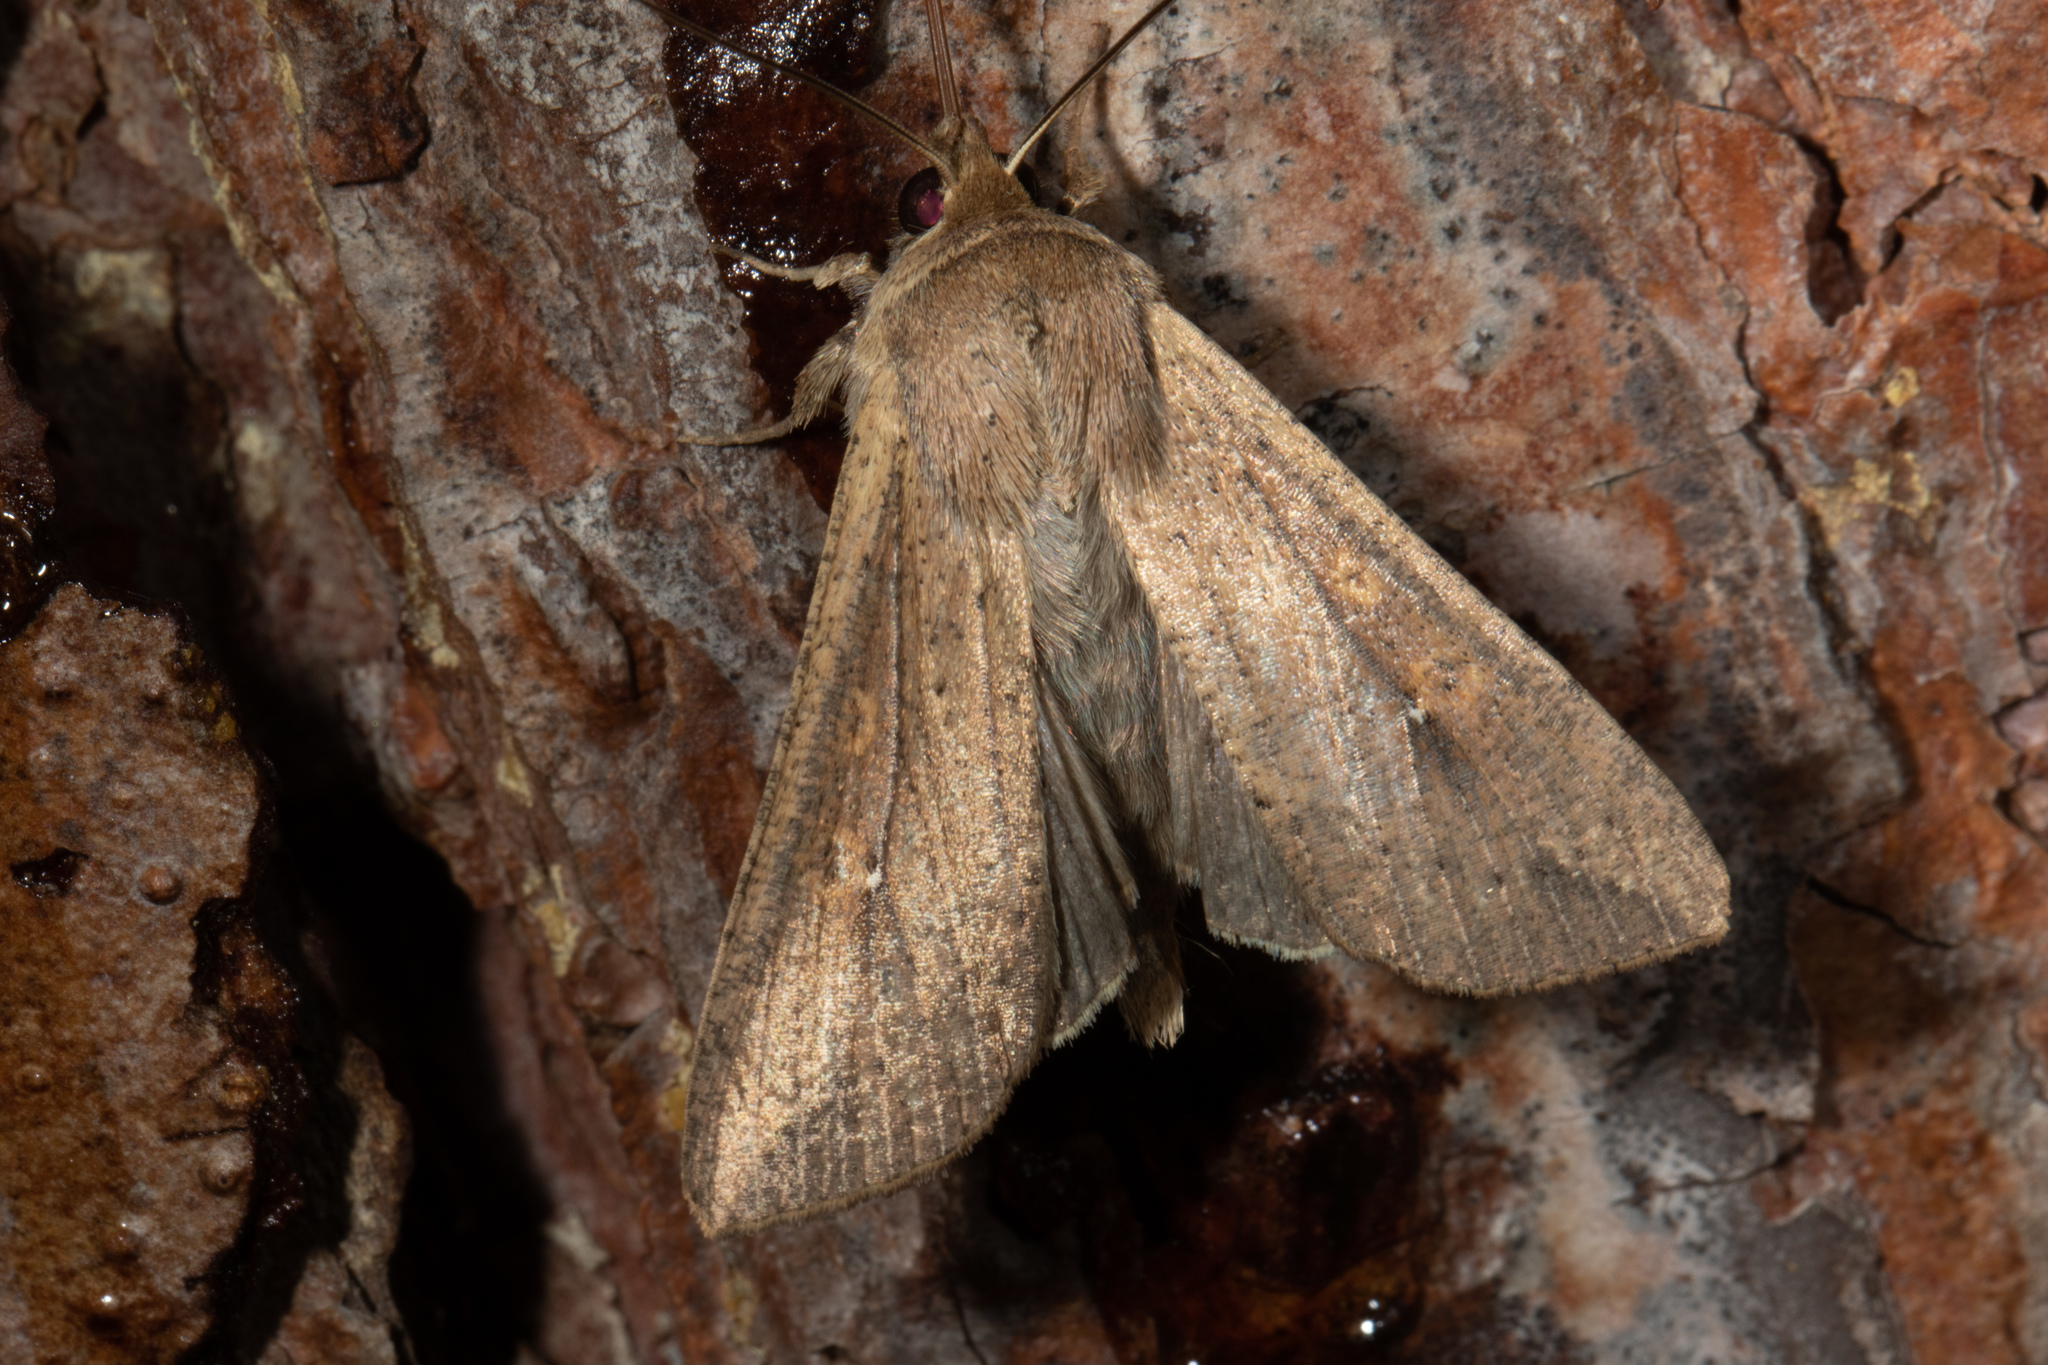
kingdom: Animalia
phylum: Arthropoda
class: Insecta
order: Lepidoptera
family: Noctuidae
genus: Mythimna
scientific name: Mythimna unipuncta
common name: White-speck
